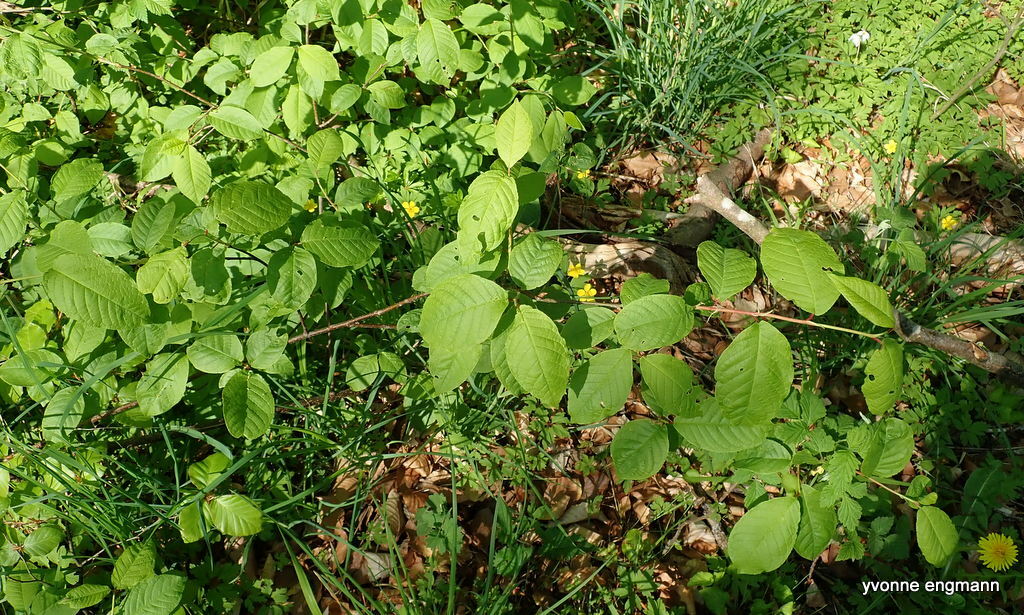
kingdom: Plantae
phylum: Tracheophyta
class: Magnoliopsida
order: Rosales
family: Rosaceae
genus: Prunus
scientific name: Prunus padus
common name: Bird cherry
